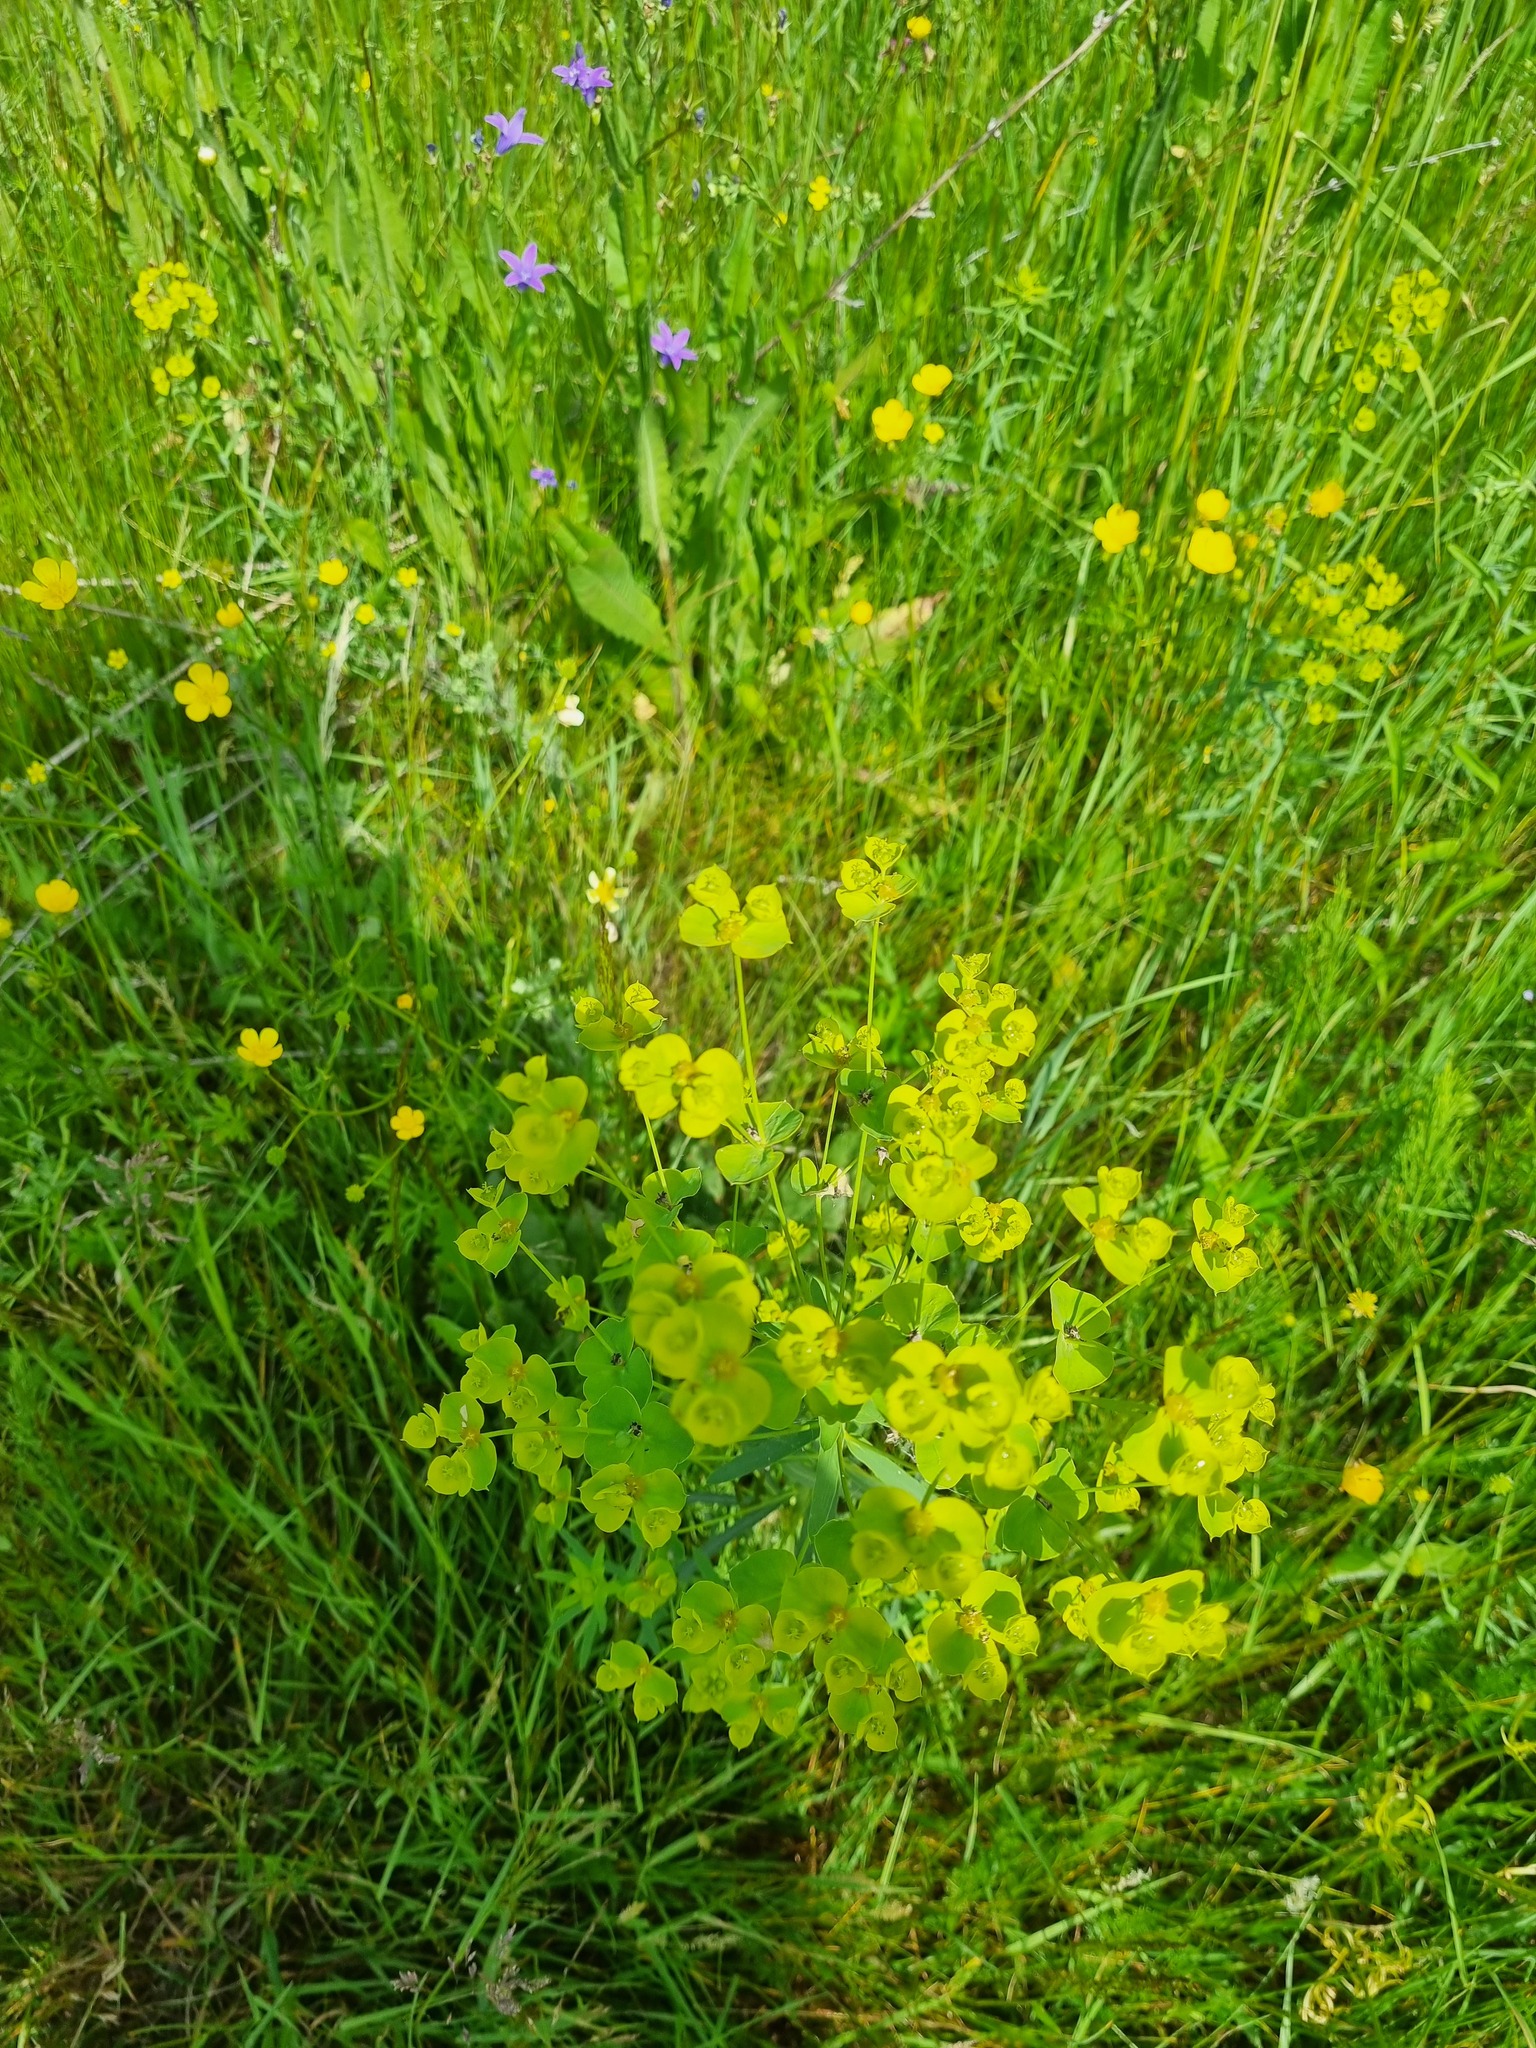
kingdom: Plantae
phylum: Tracheophyta
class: Magnoliopsida
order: Malpighiales
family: Euphorbiaceae
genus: Euphorbia
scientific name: Euphorbia virgata
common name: Leafy spurge
